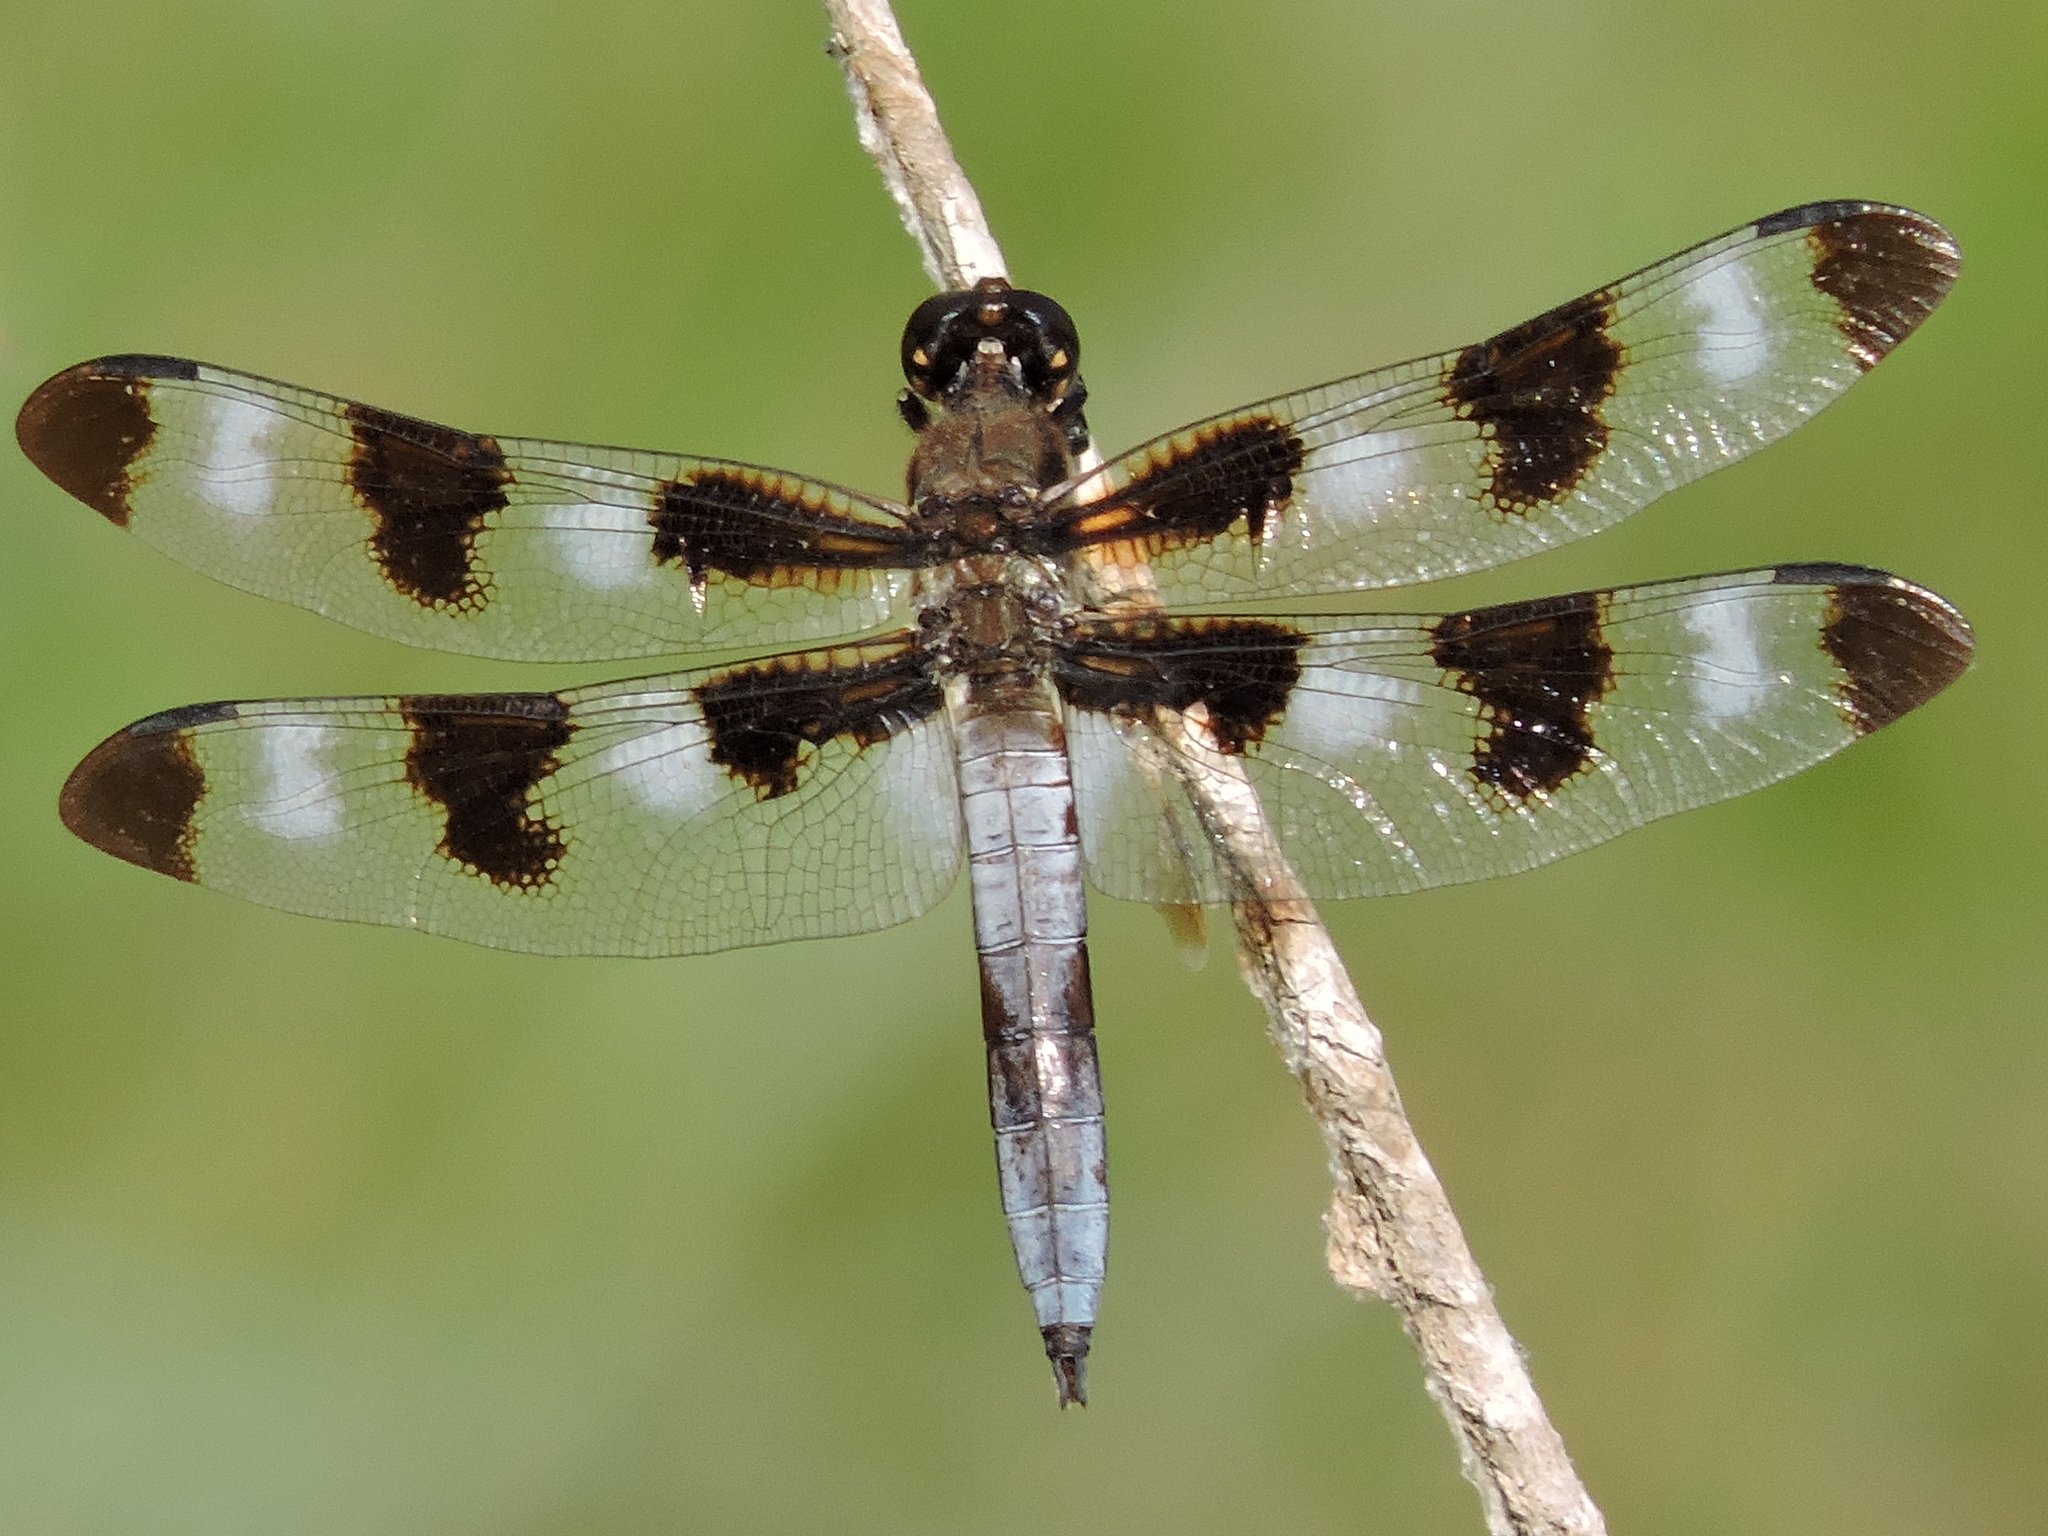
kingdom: Animalia
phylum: Arthropoda
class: Insecta
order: Odonata
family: Libellulidae
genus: Libellula
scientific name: Libellula pulchella
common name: Twelve-spotted skimmer
